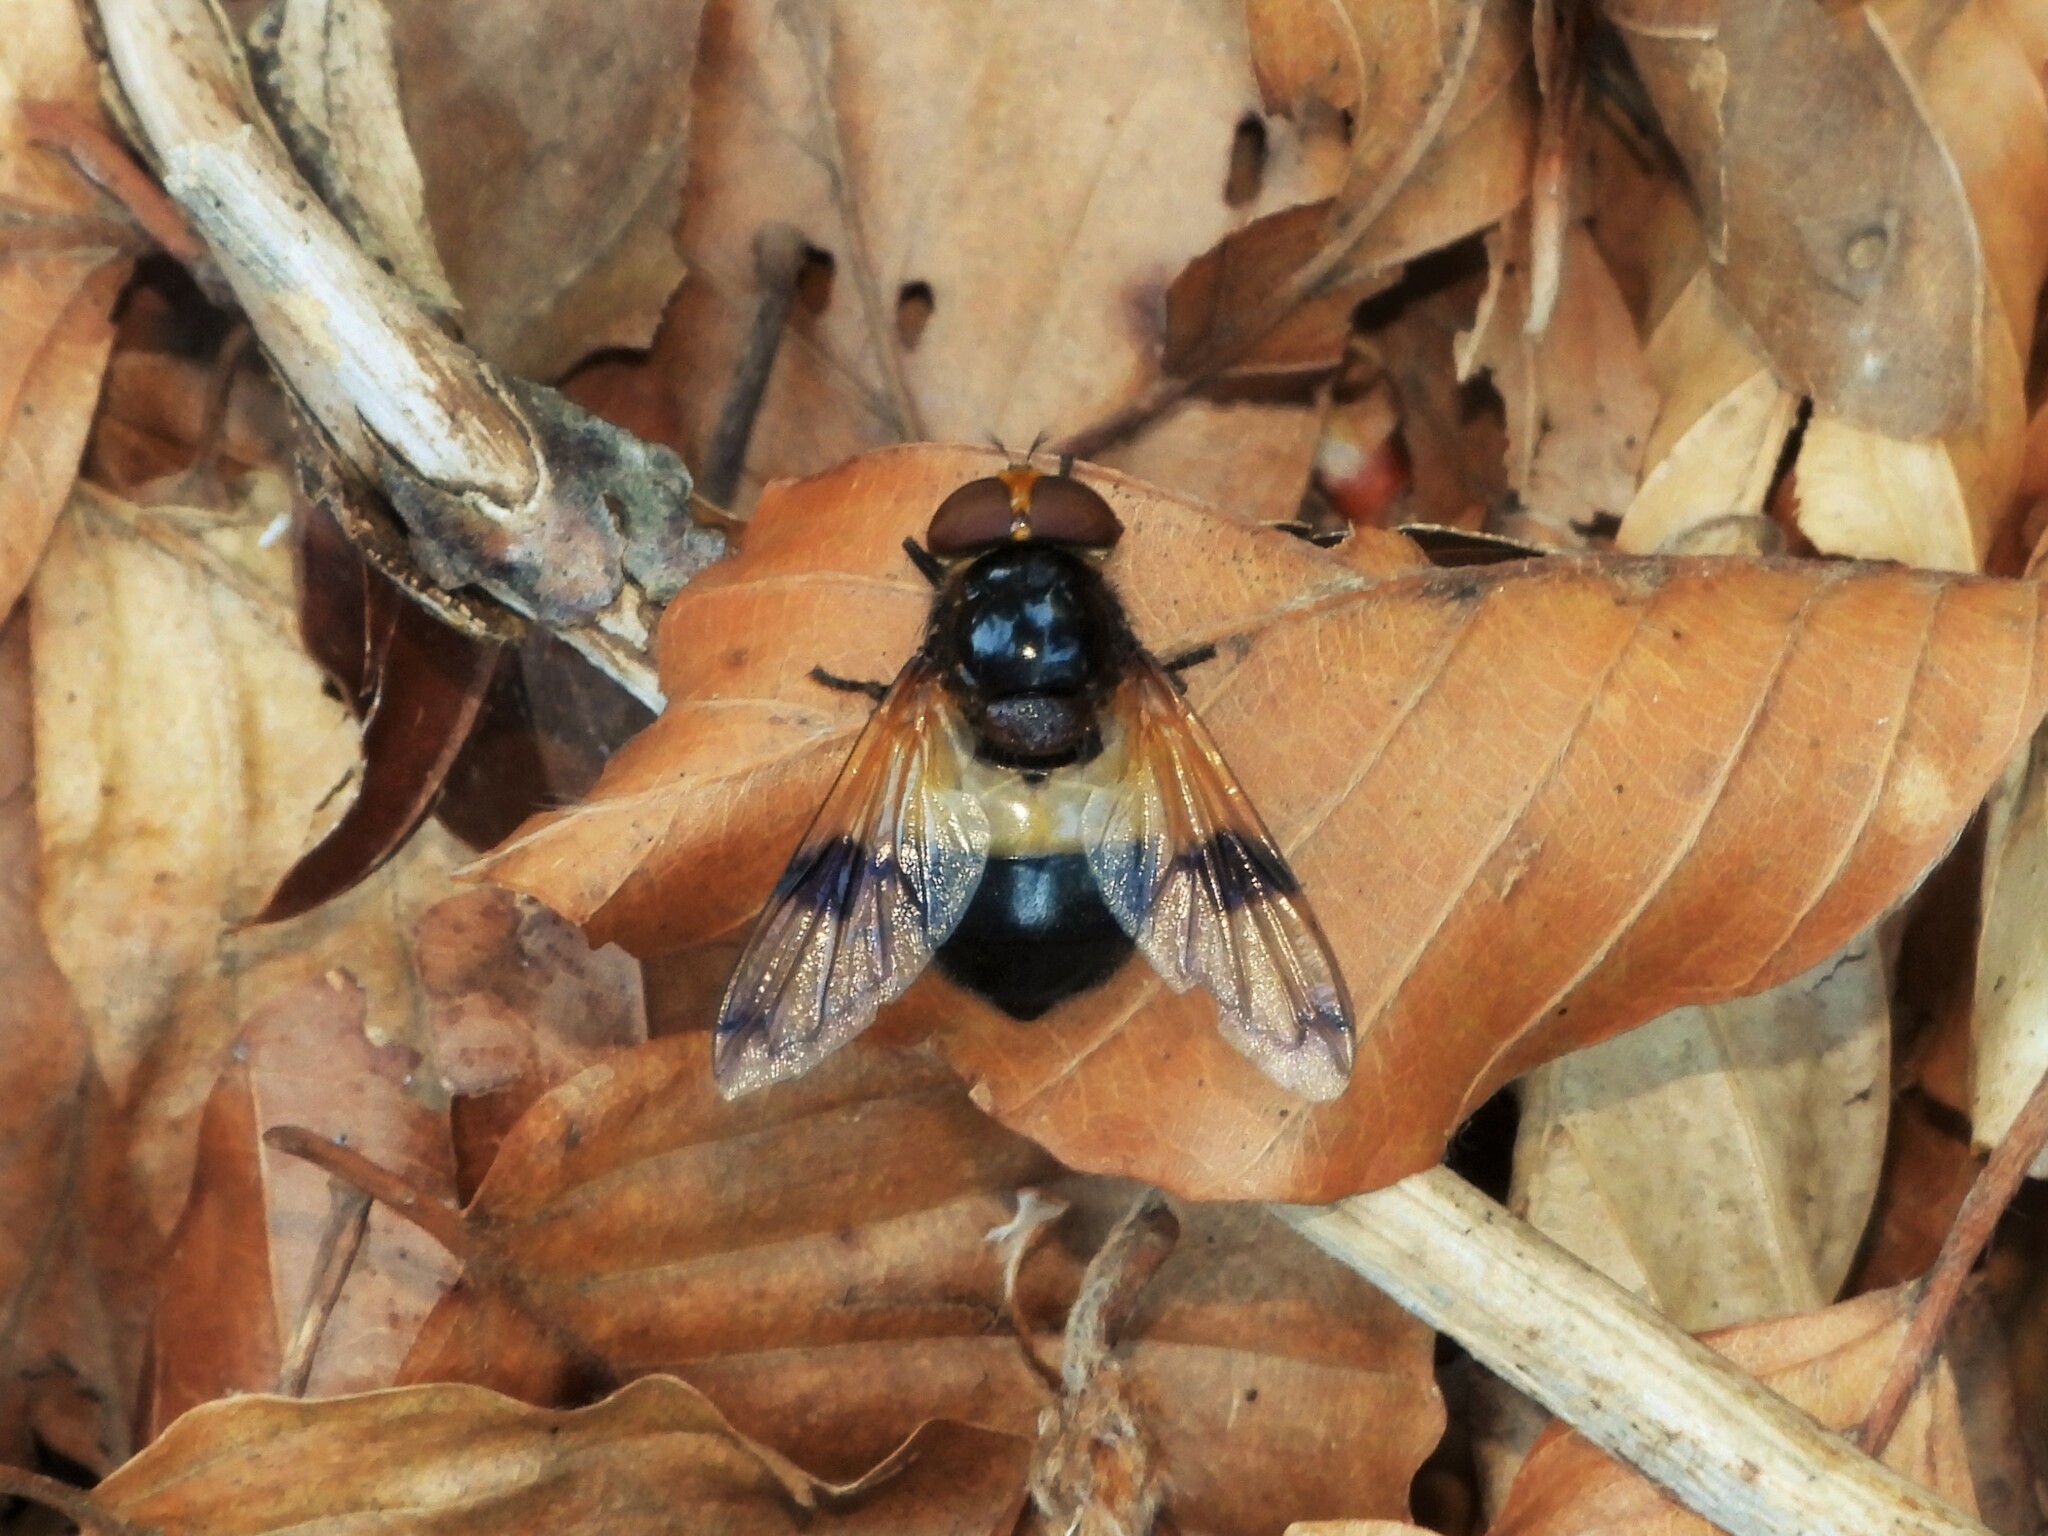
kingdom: Animalia
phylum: Arthropoda
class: Insecta
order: Diptera
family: Syrphidae
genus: Volucella
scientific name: Volucella pellucens
